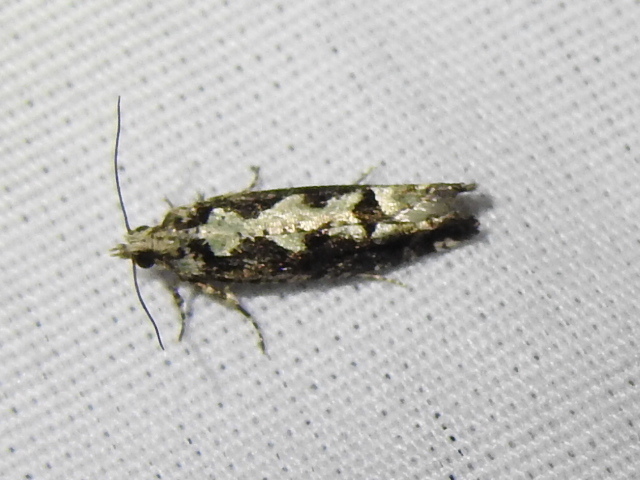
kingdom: Animalia
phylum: Arthropoda
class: Insecta
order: Lepidoptera
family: Tortricidae
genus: Chimoptesis
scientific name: Chimoptesis pennsylvaniana
